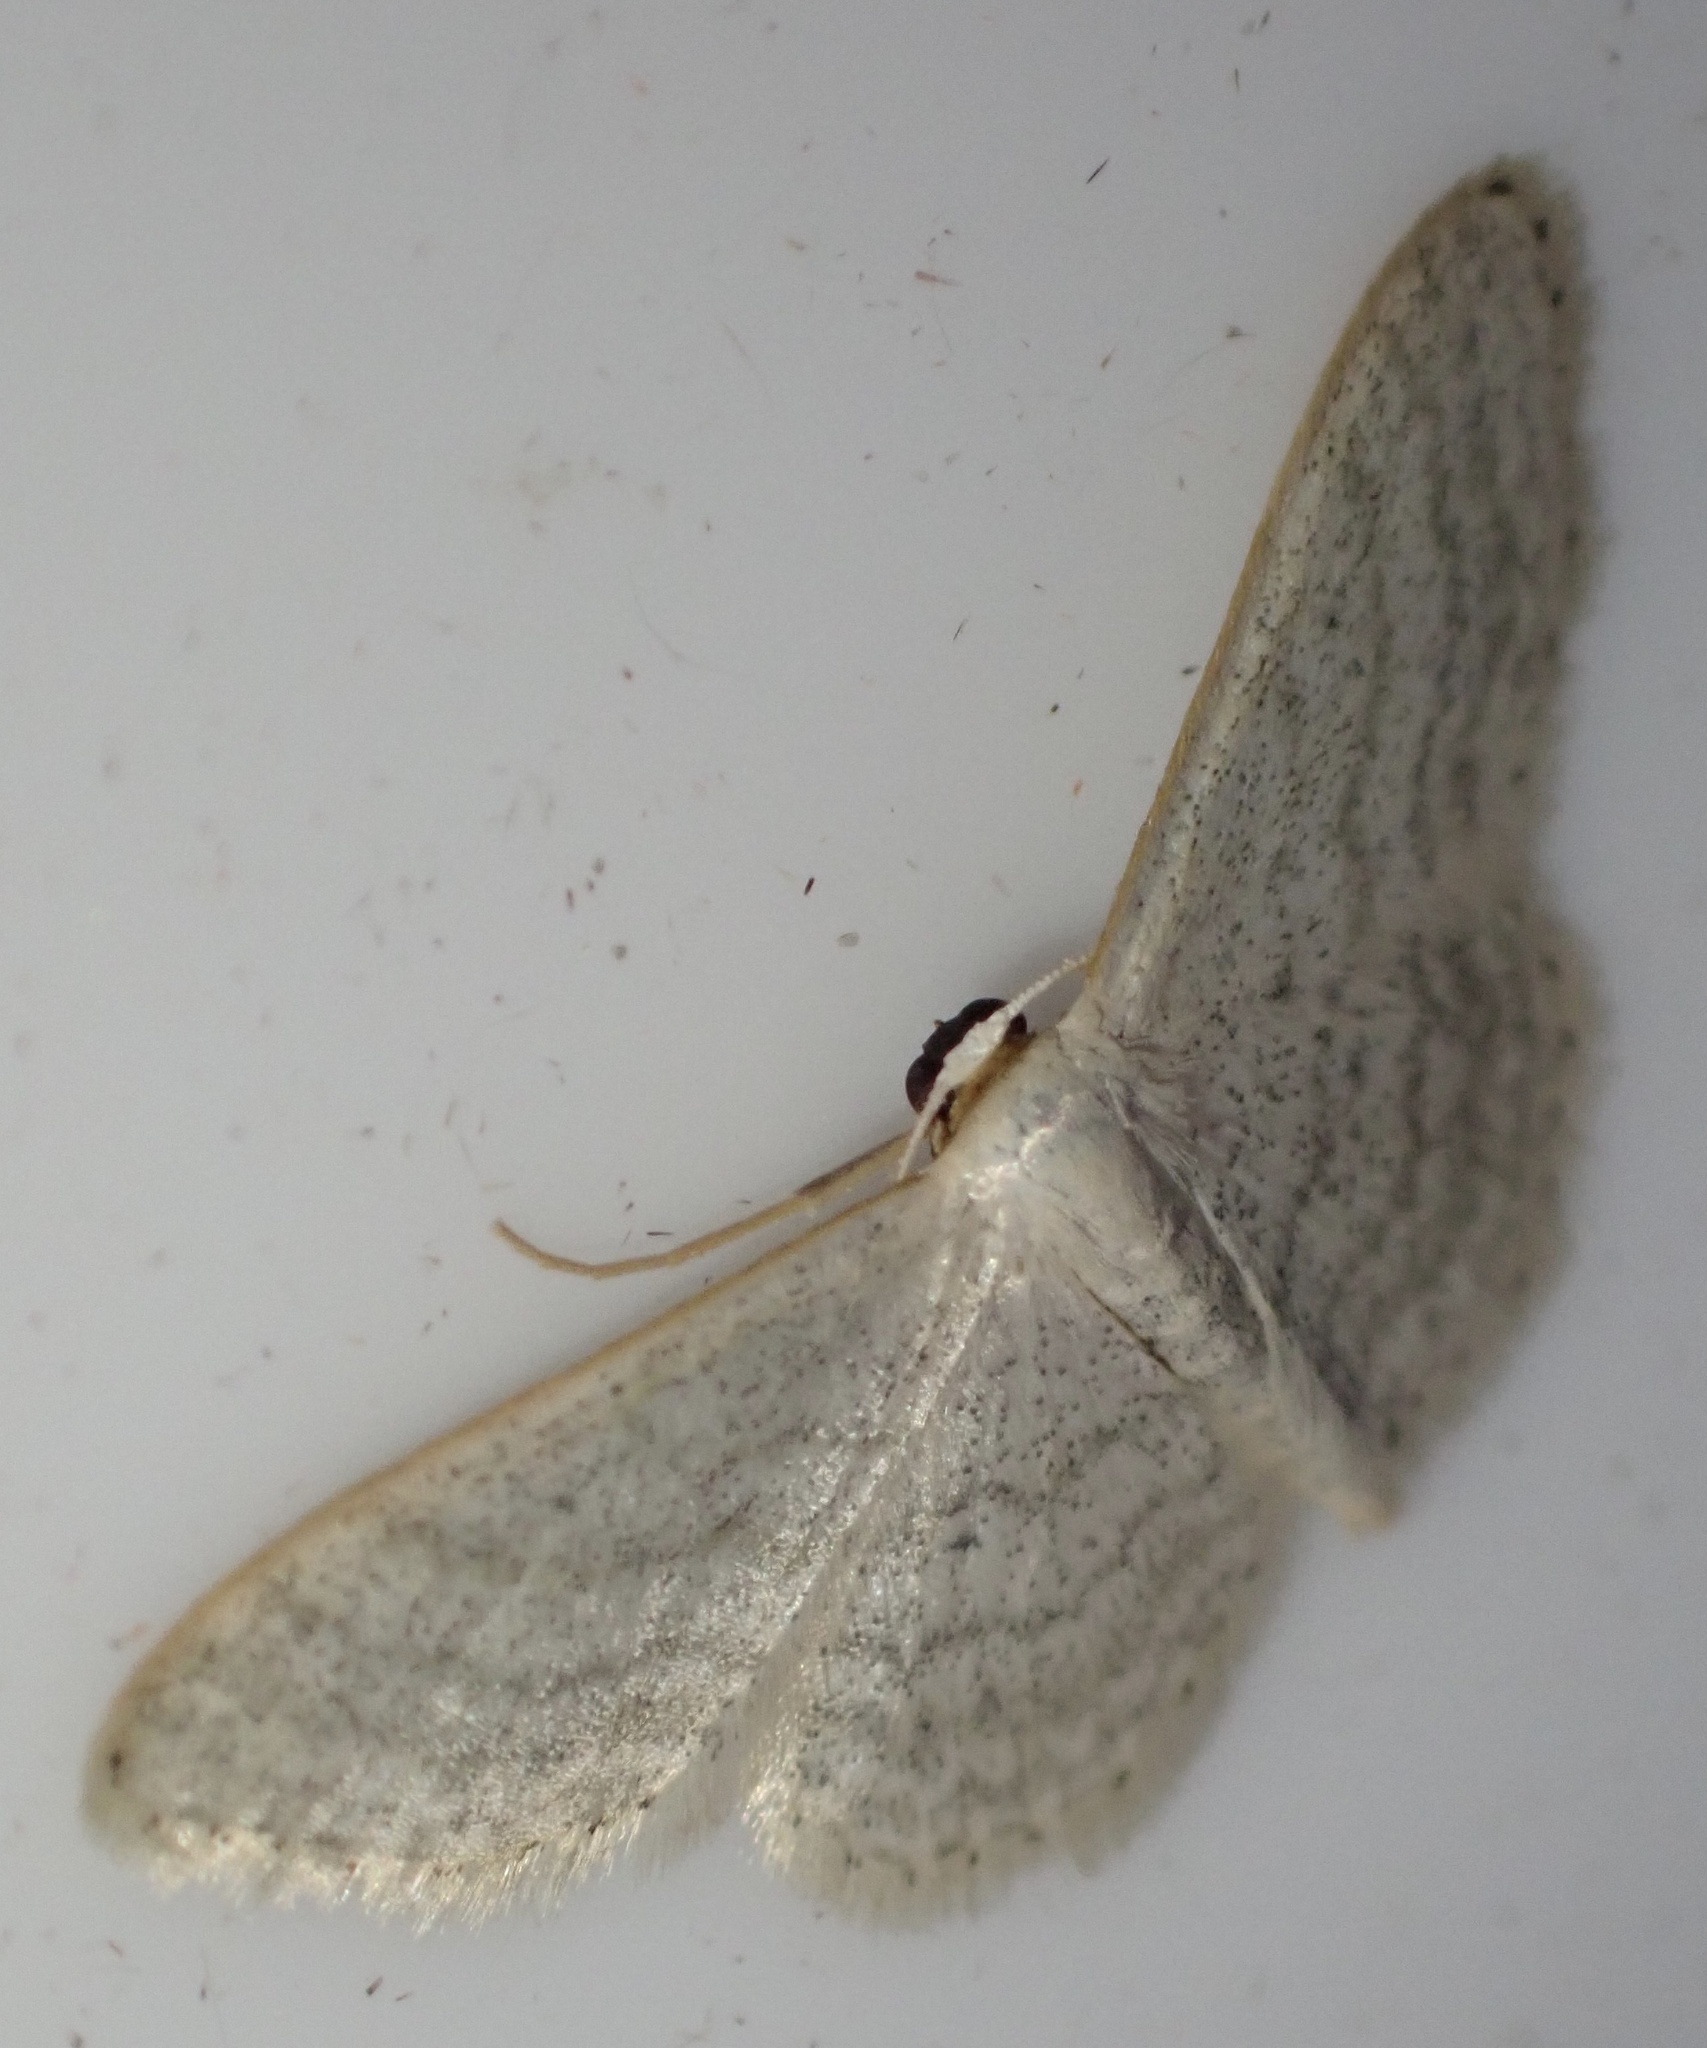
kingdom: Animalia
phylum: Arthropoda
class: Insecta
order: Lepidoptera
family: Geometridae
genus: Idaea
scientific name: Idaea subsericeata
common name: Satin wave
